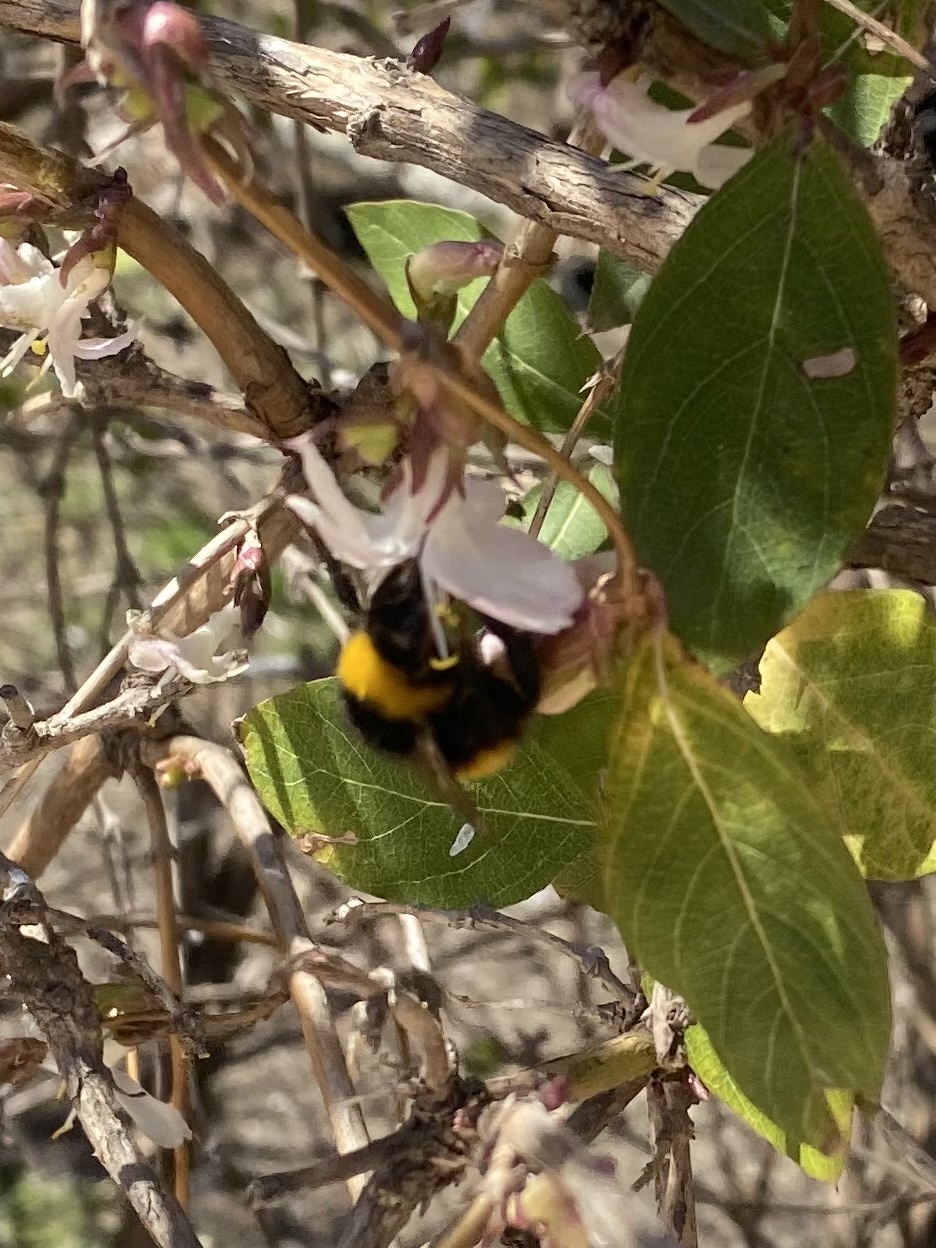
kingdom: Animalia
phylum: Arthropoda
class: Insecta
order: Hymenoptera
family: Apidae
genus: Bombus
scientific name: Bombus haematurus
